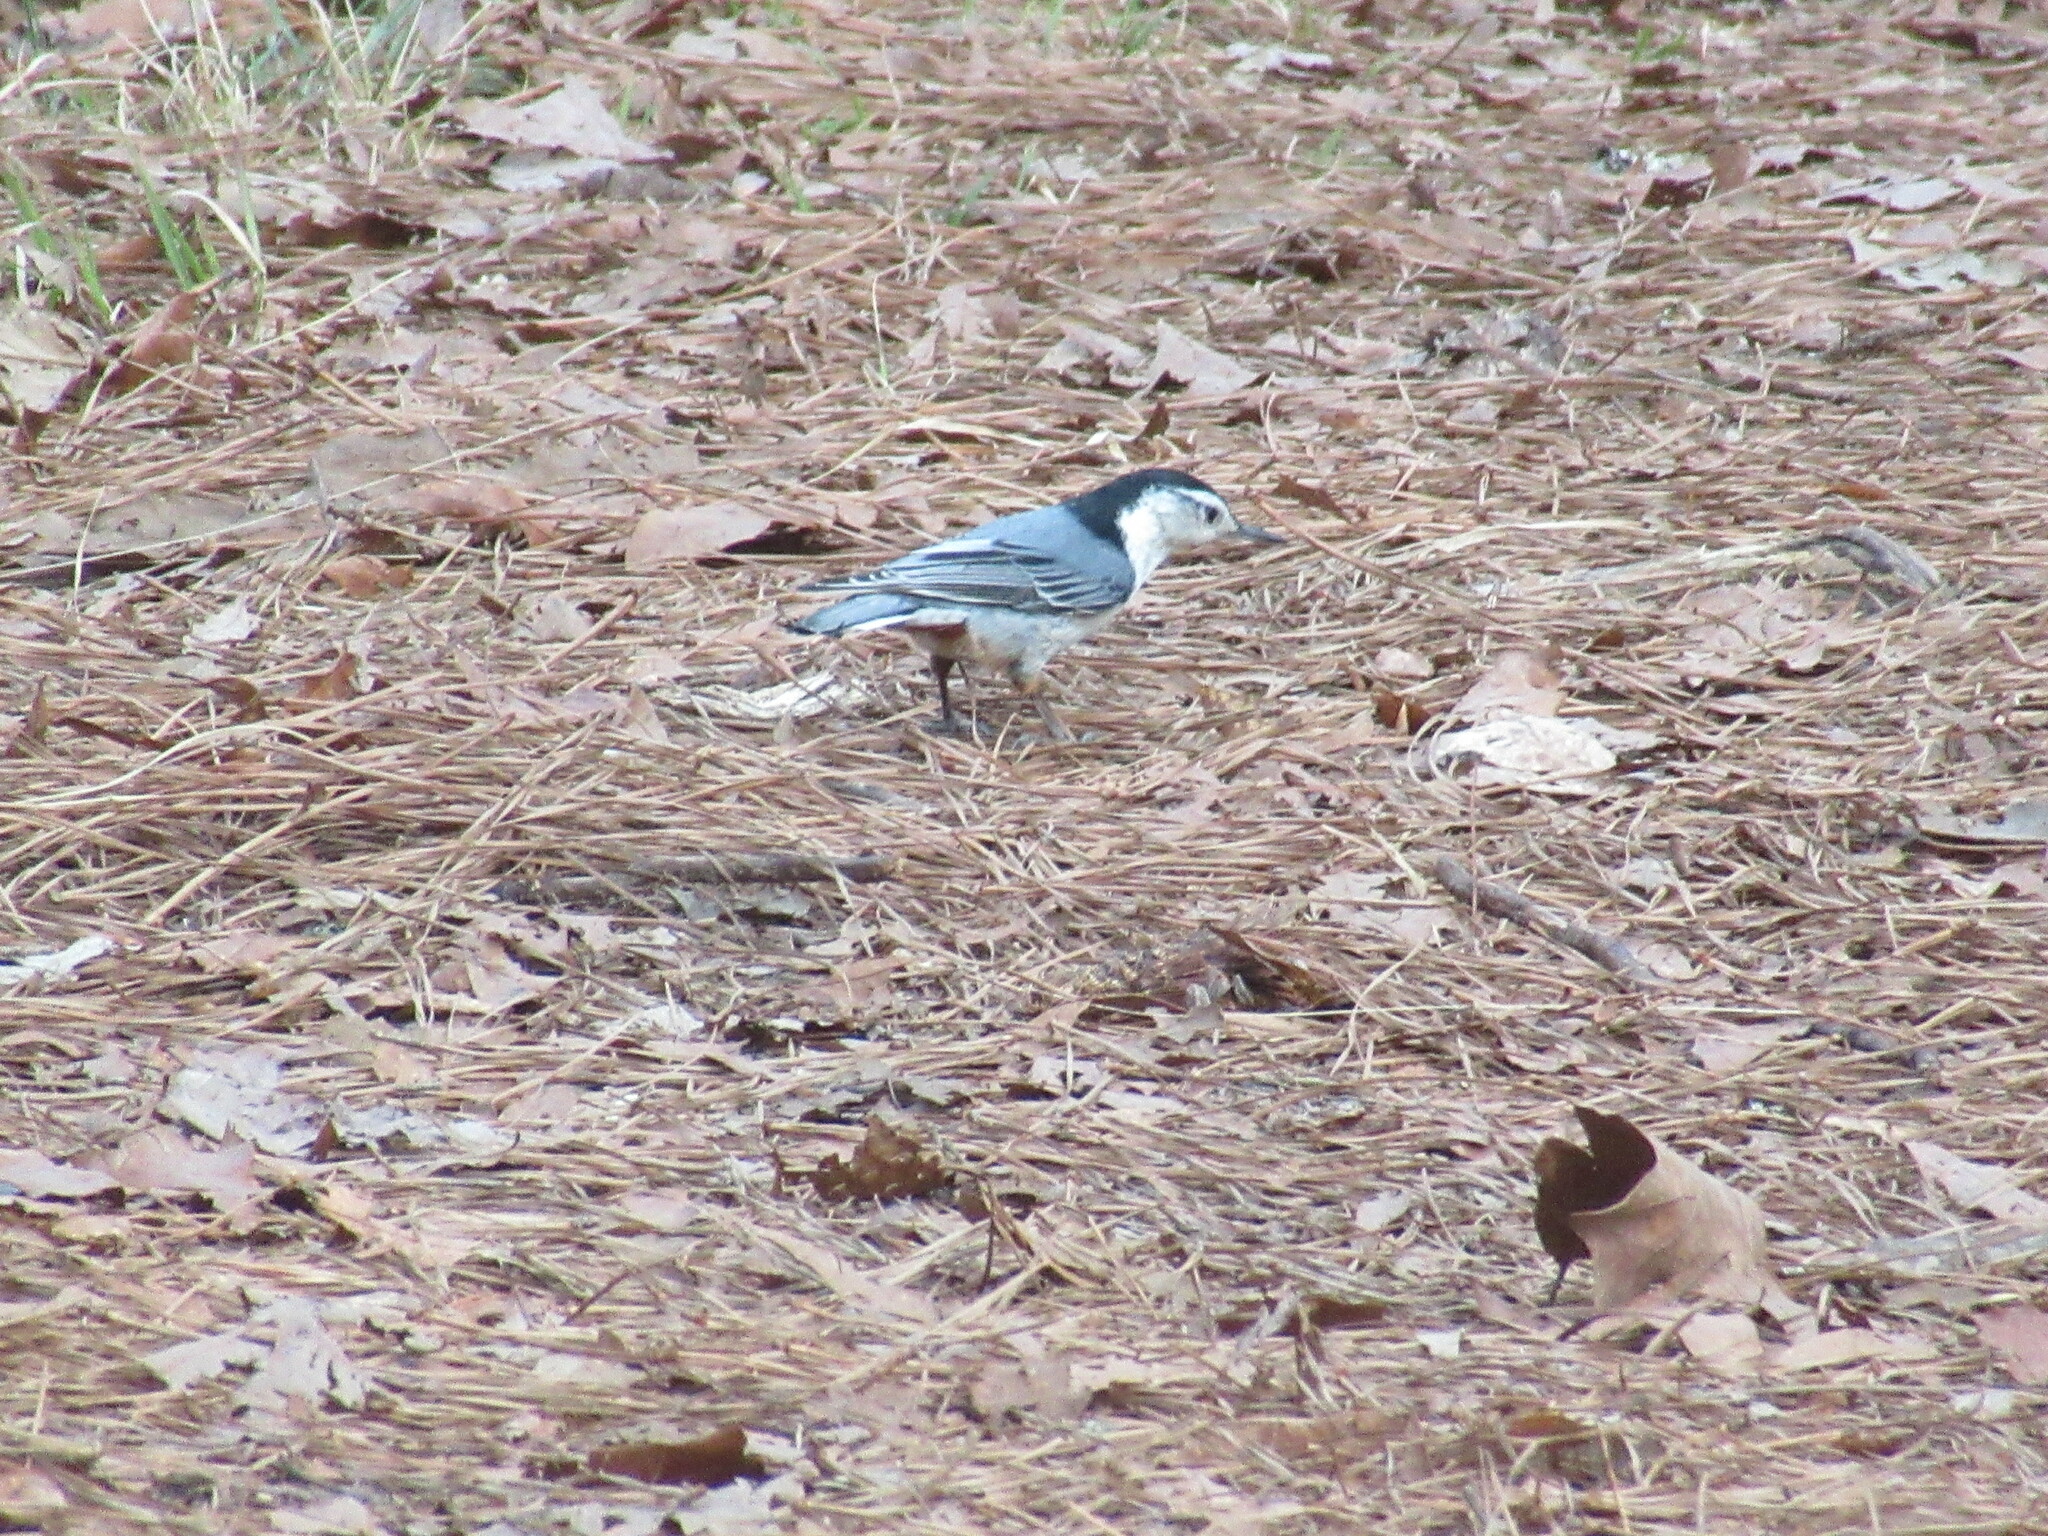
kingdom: Animalia
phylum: Chordata
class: Aves
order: Passeriformes
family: Sittidae
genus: Sitta
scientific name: Sitta carolinensis
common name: White-breasted nuthatch
